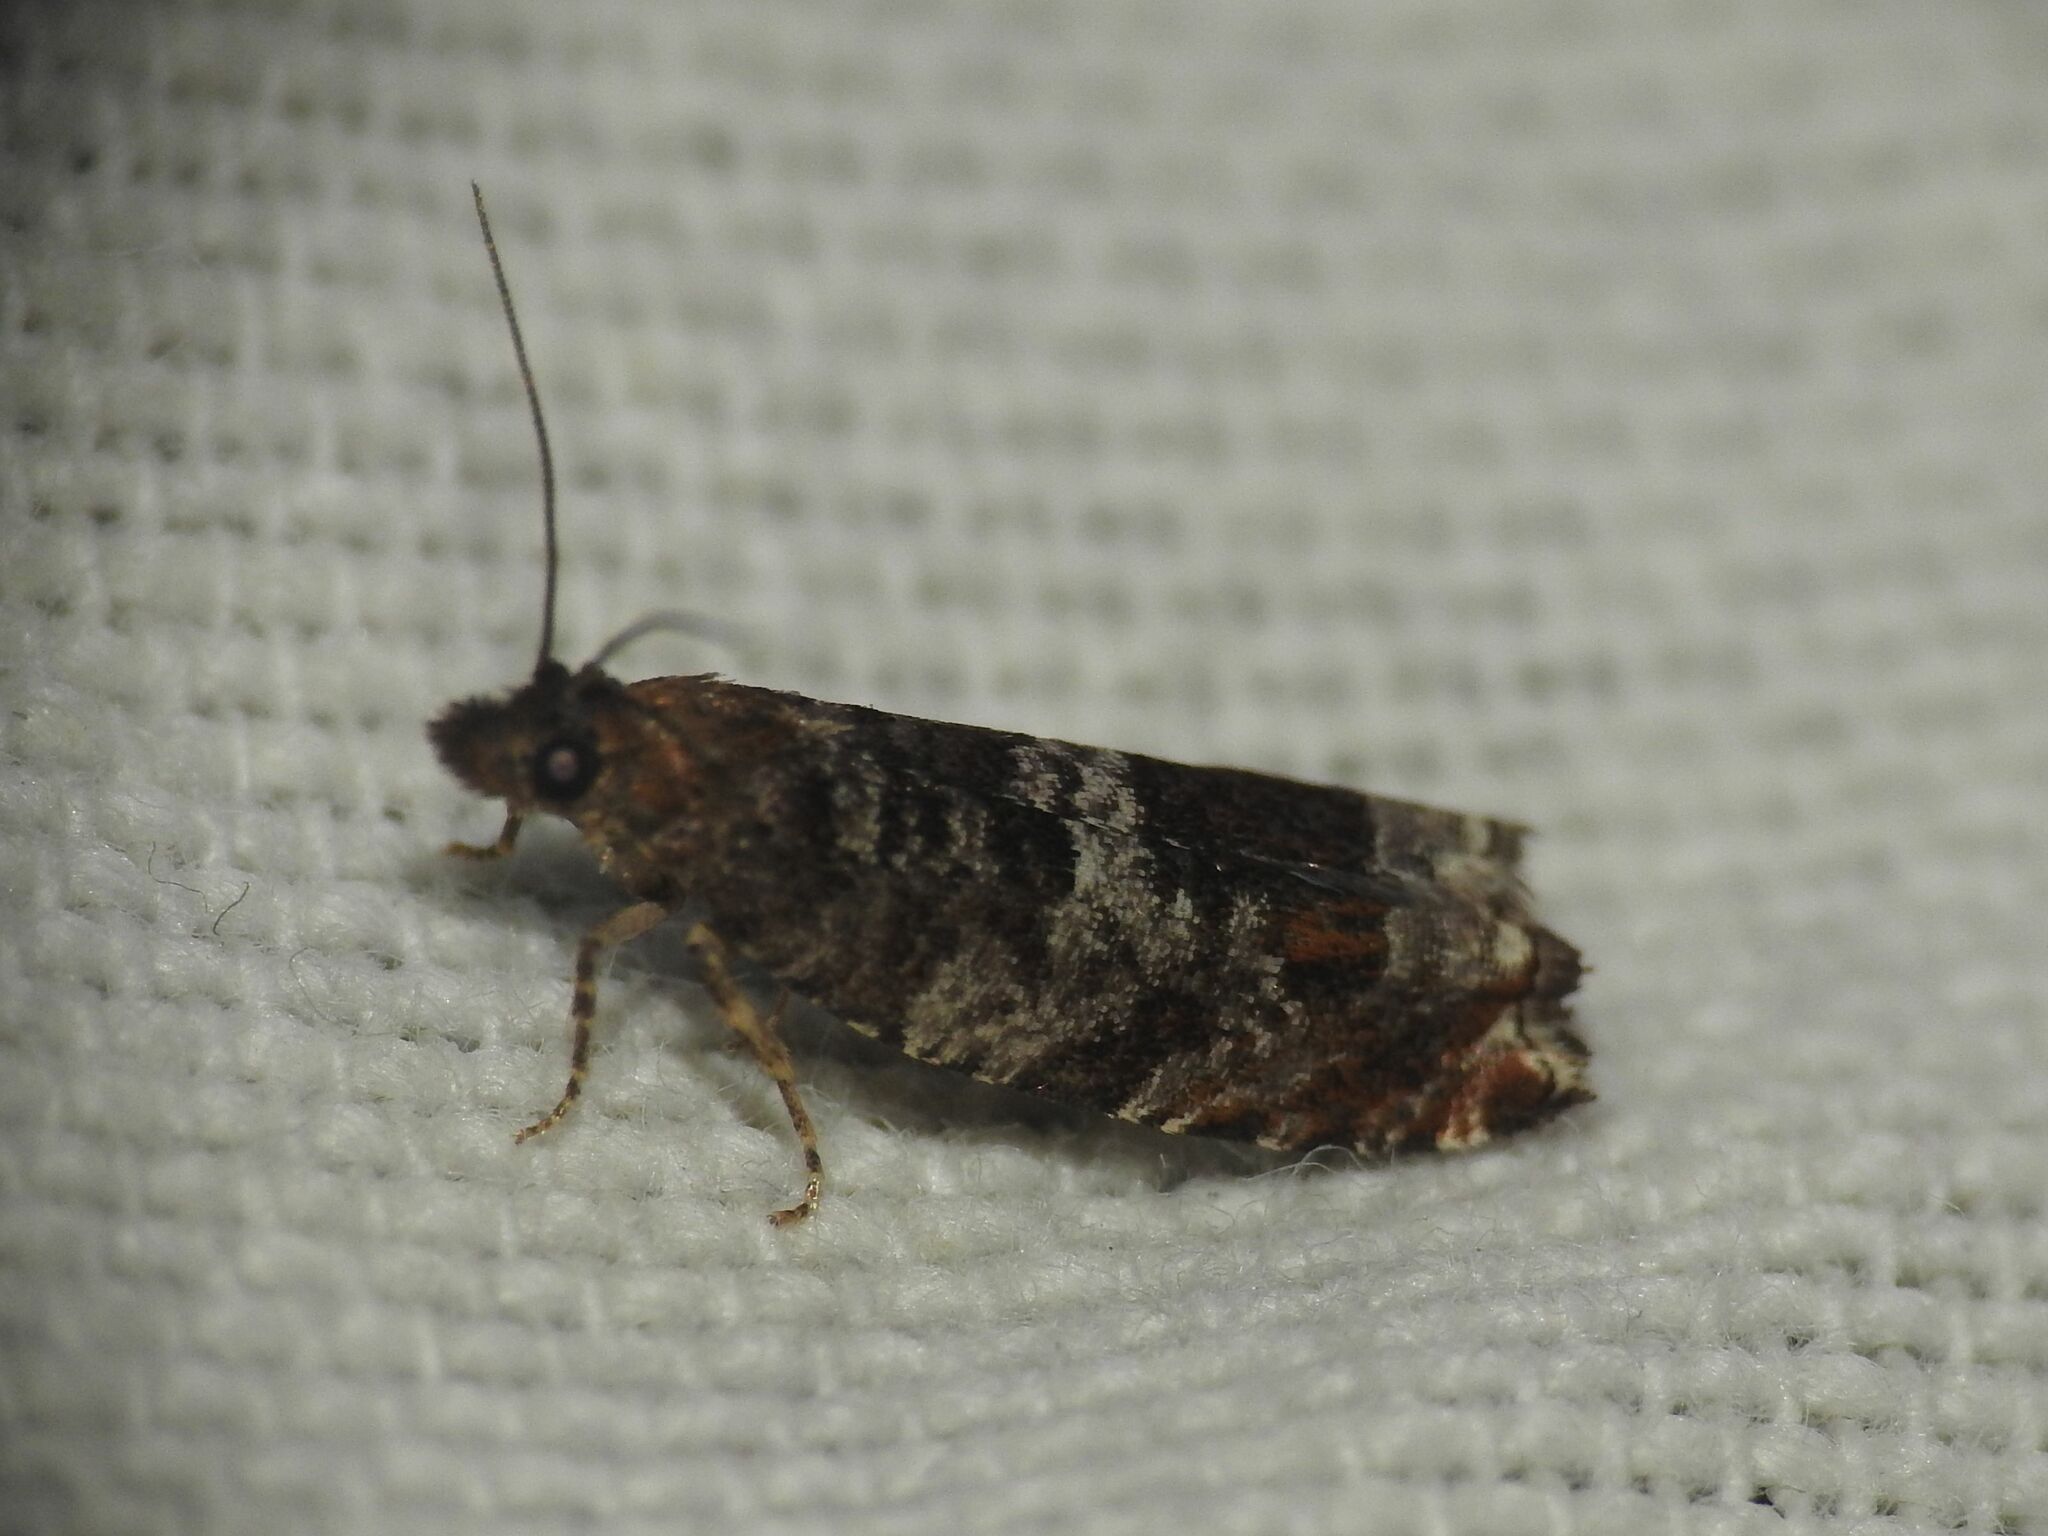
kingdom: Animalia
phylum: Arthropoda
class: Insecta
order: Lepidoptera
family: Tortricidae
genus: Ancylis
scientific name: Ancylis achatana
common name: Triangle-marked roller
